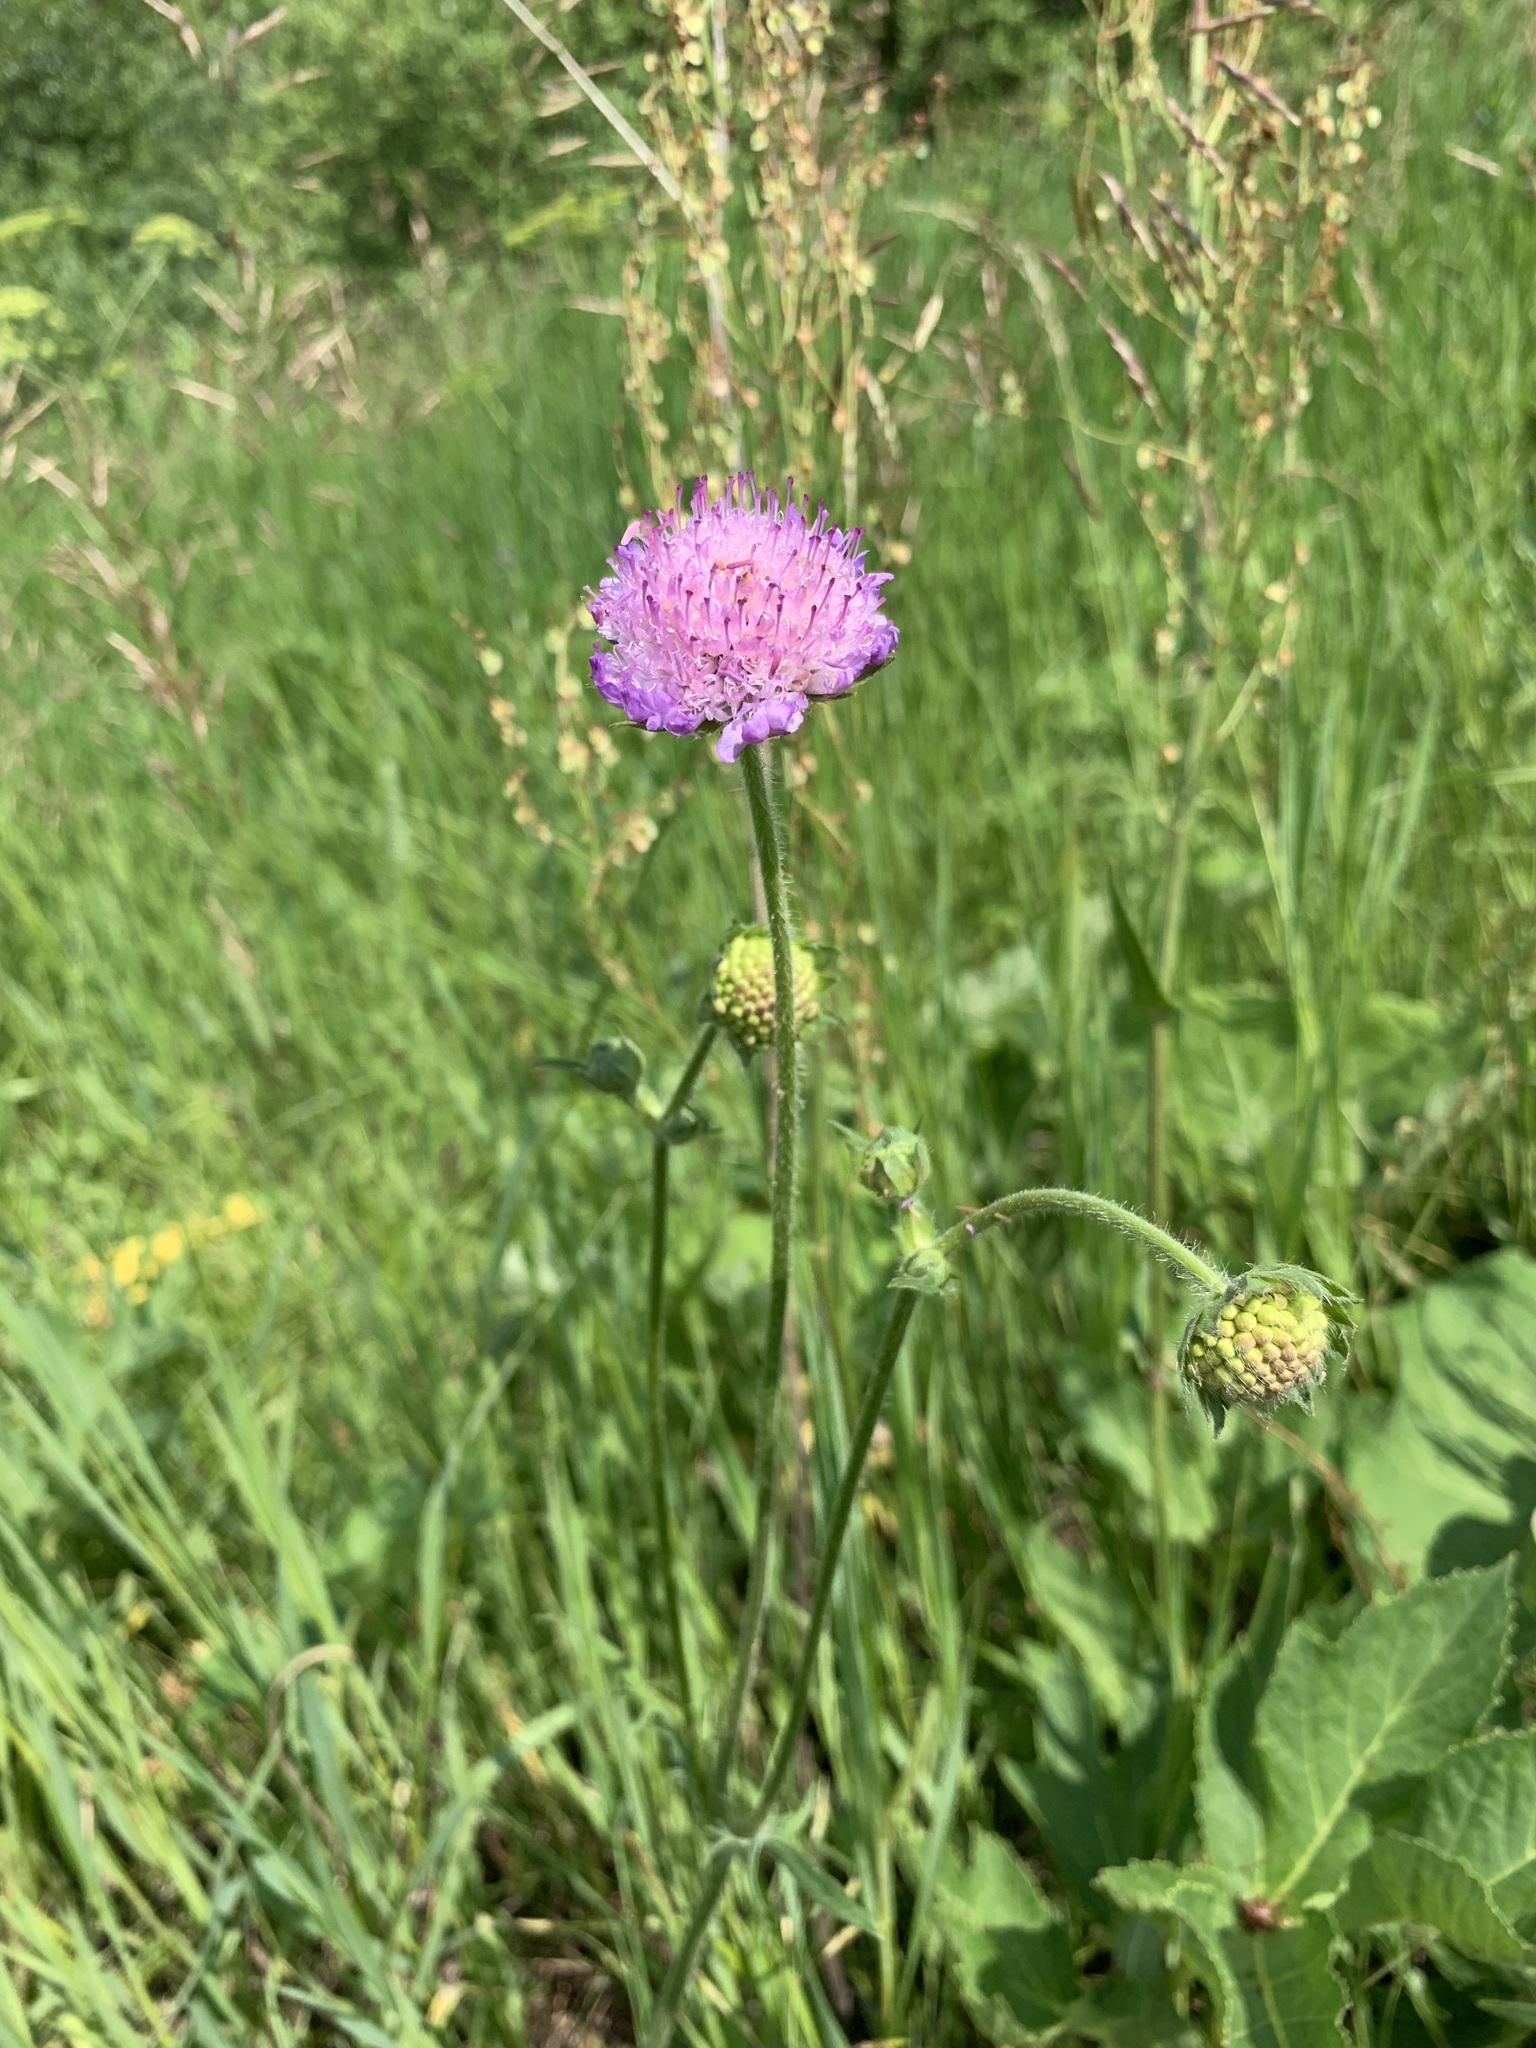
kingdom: Plantae
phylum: Tracheophyta
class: Magnoliopsida
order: Dipsacales
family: Caprifoliaceae
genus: Knautia
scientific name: Knautia arvensis
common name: Field scabiosa
